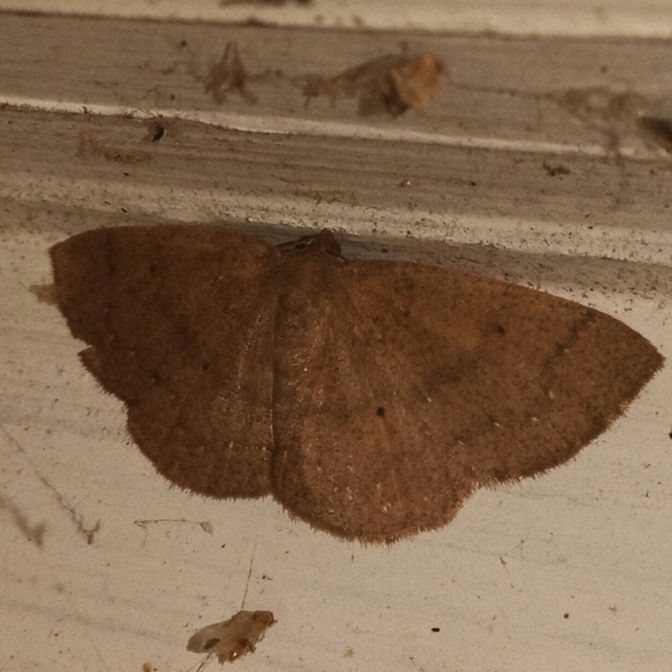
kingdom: Animalia
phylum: Arthropoda
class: Insecta
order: Lepidoptera
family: Geometridae
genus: Ilexia
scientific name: Ilexia intractata
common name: Black-dotted ruddy moth
